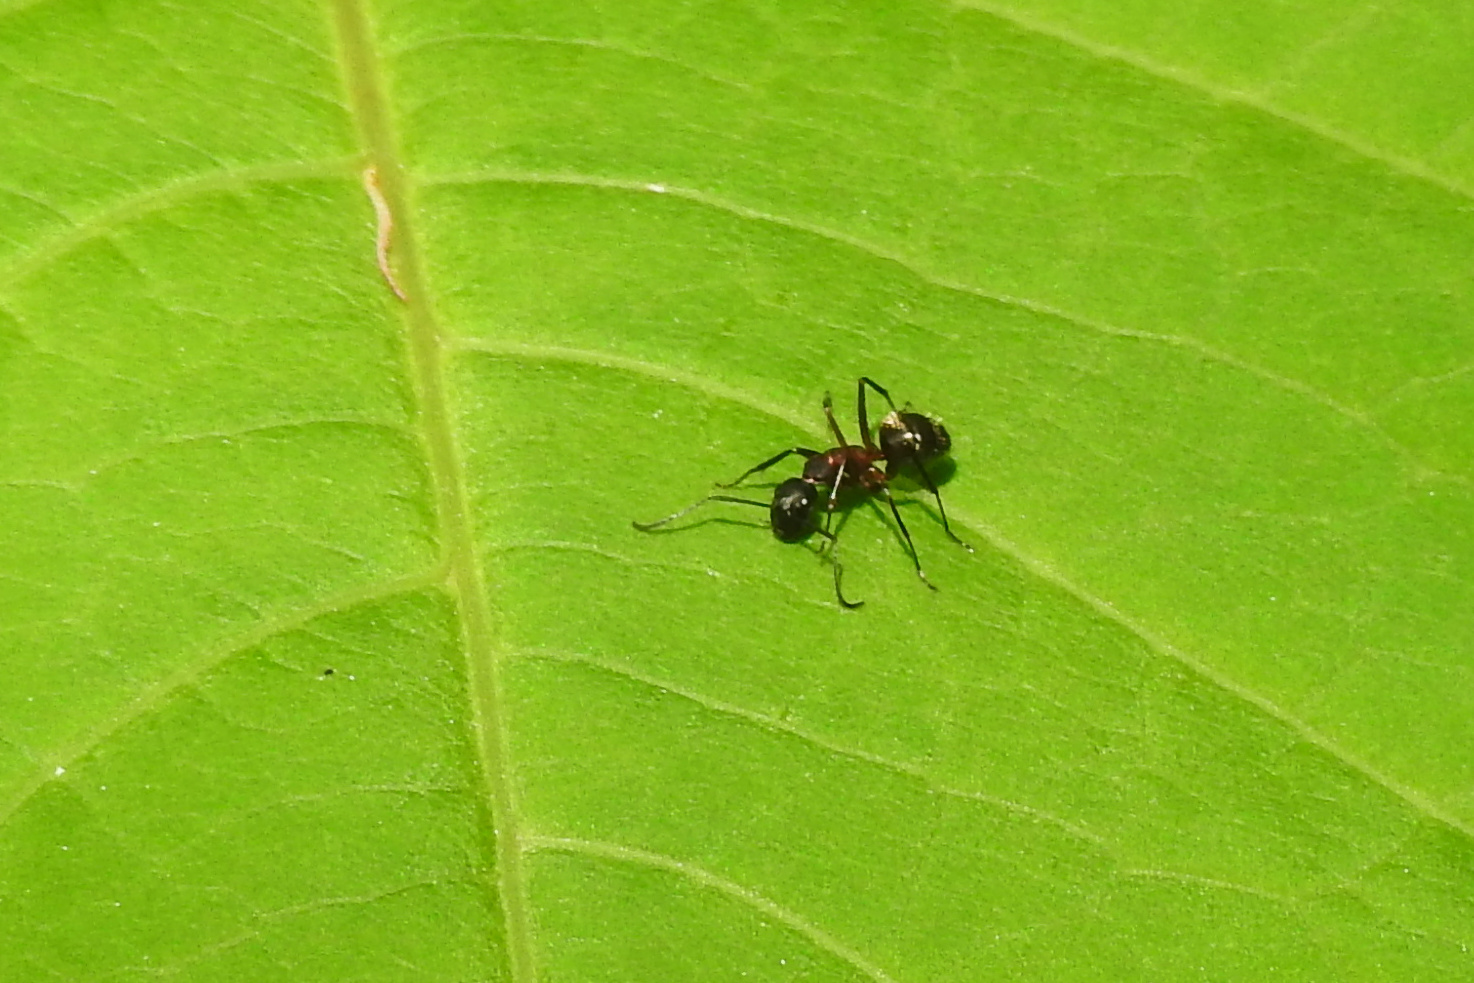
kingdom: Animalia
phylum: Arthropoda
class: Insecta
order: Hymenoptera
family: Formicidae
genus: Camponotus
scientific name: Camponotus chromaiodes
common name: Red carpenter ant
